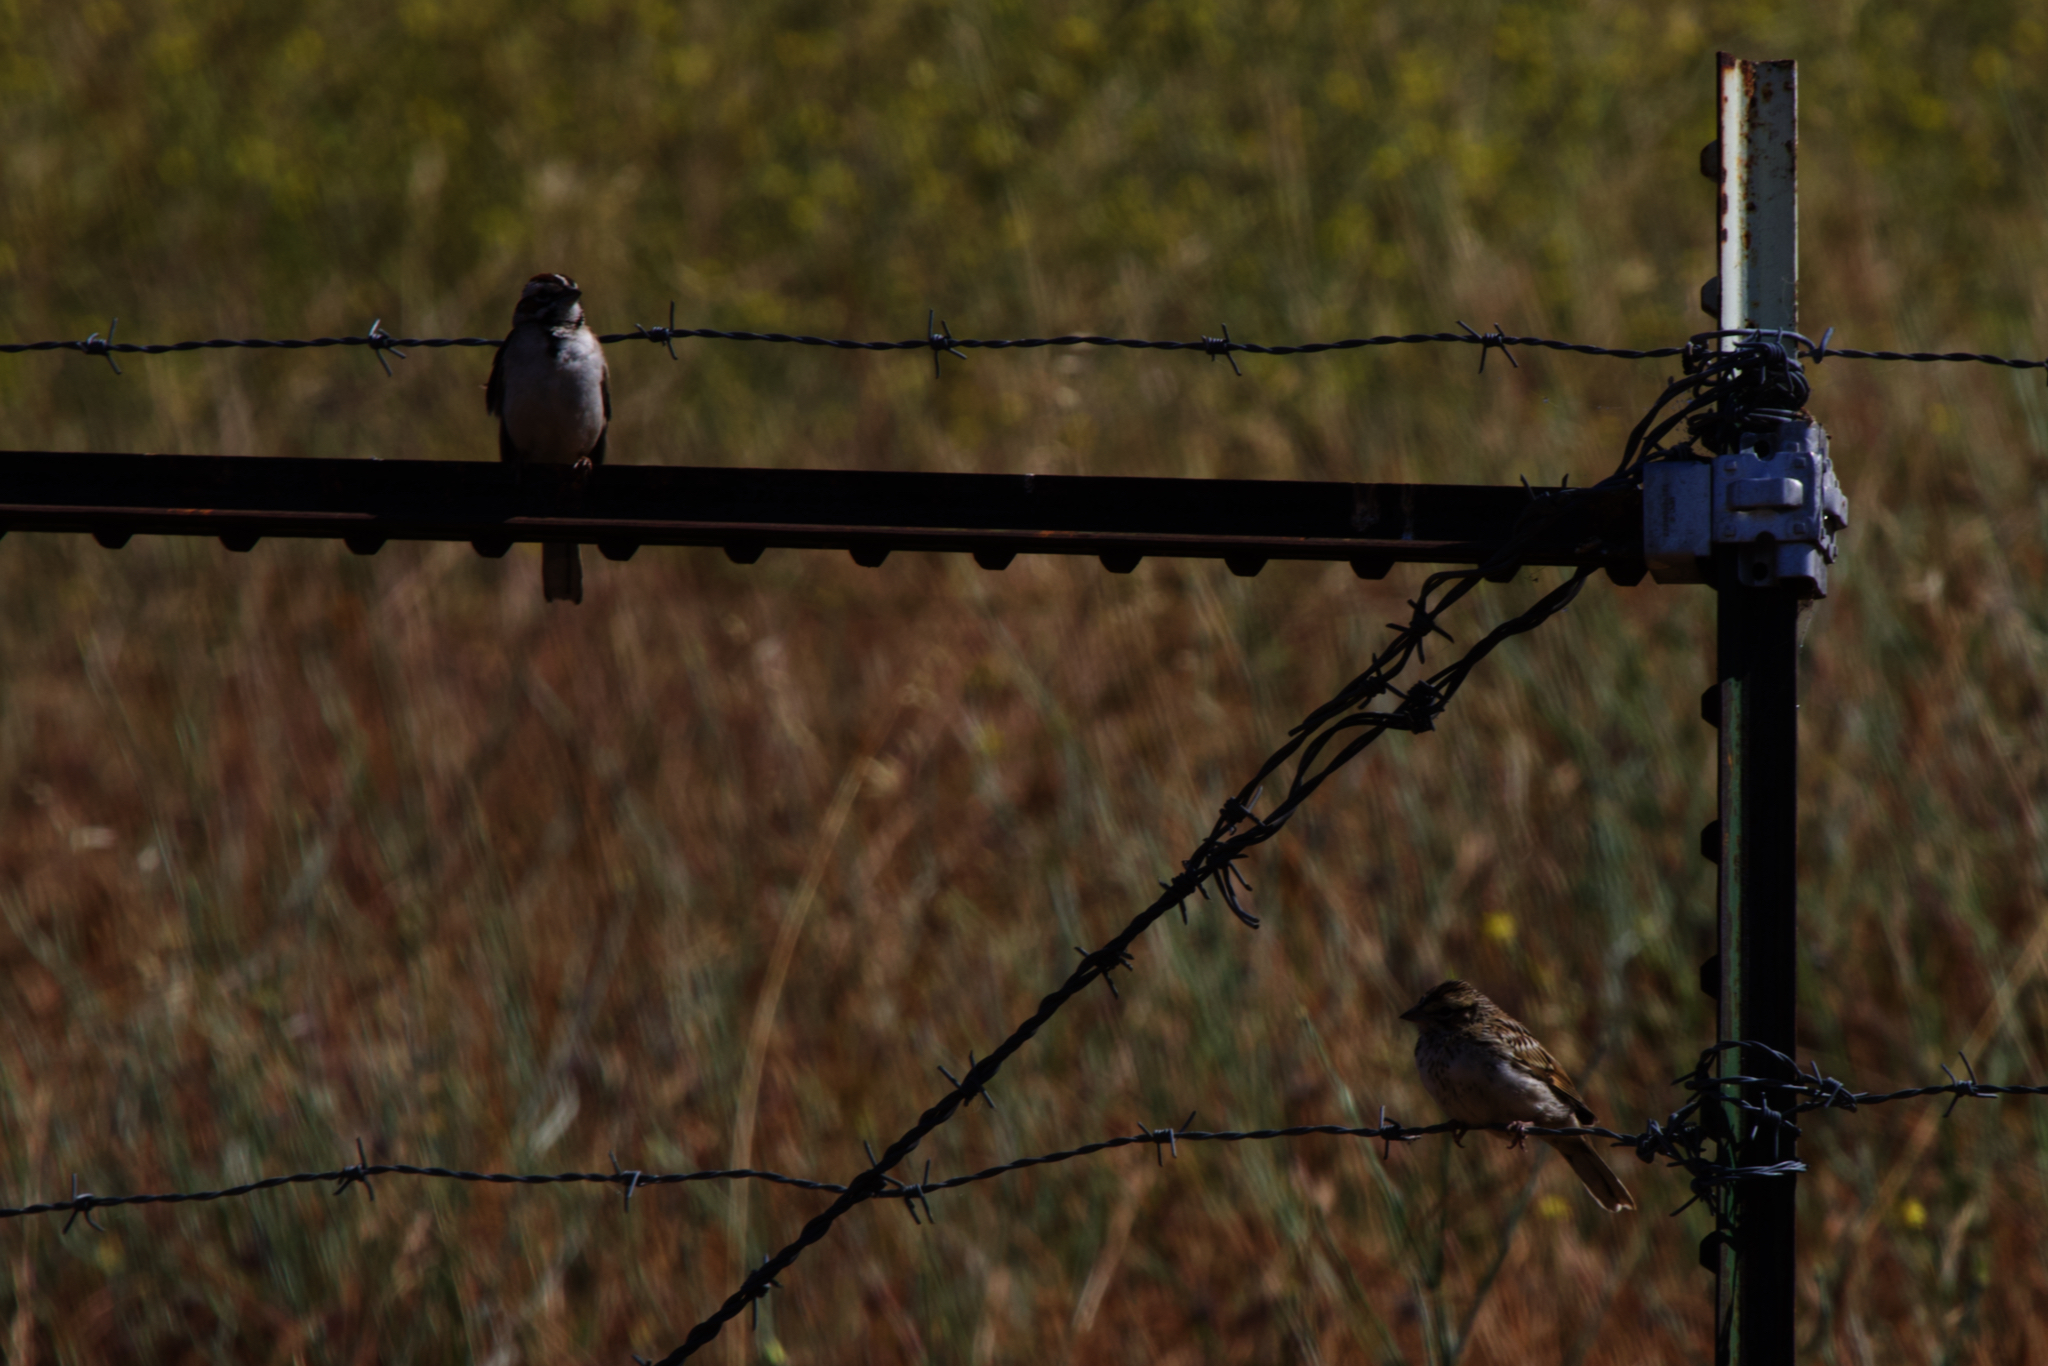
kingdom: Animalia
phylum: Chordata
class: Aves
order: Passeriformes
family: Passerellidae
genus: Chondestes
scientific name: Chondestes grammacus
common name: Lark sparrow
